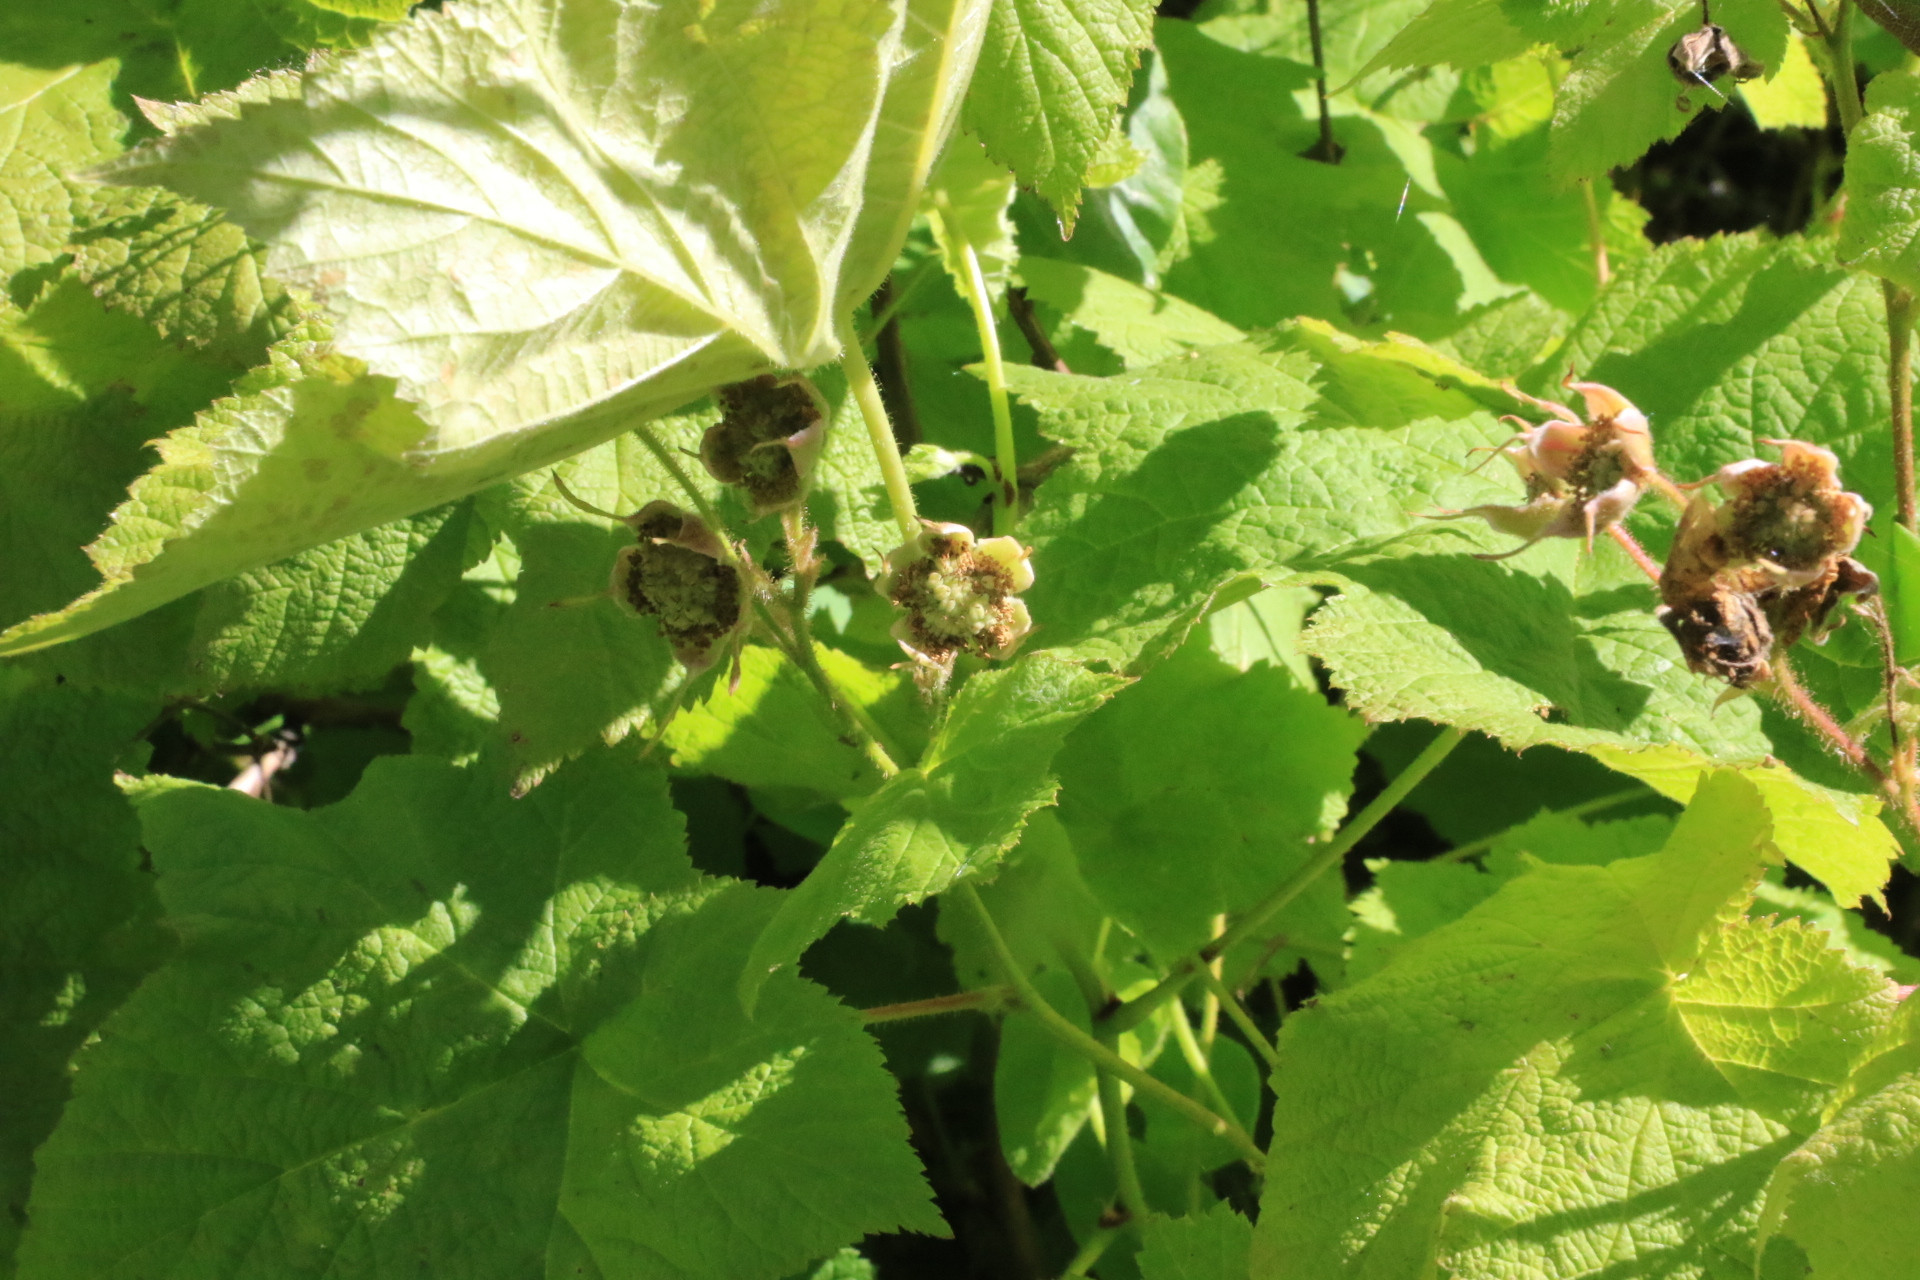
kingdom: Plantae
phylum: Tracheophyta
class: Magnoliopsida
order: Rosales
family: Rosaceae
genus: Rubus
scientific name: Rubus parviflorus
